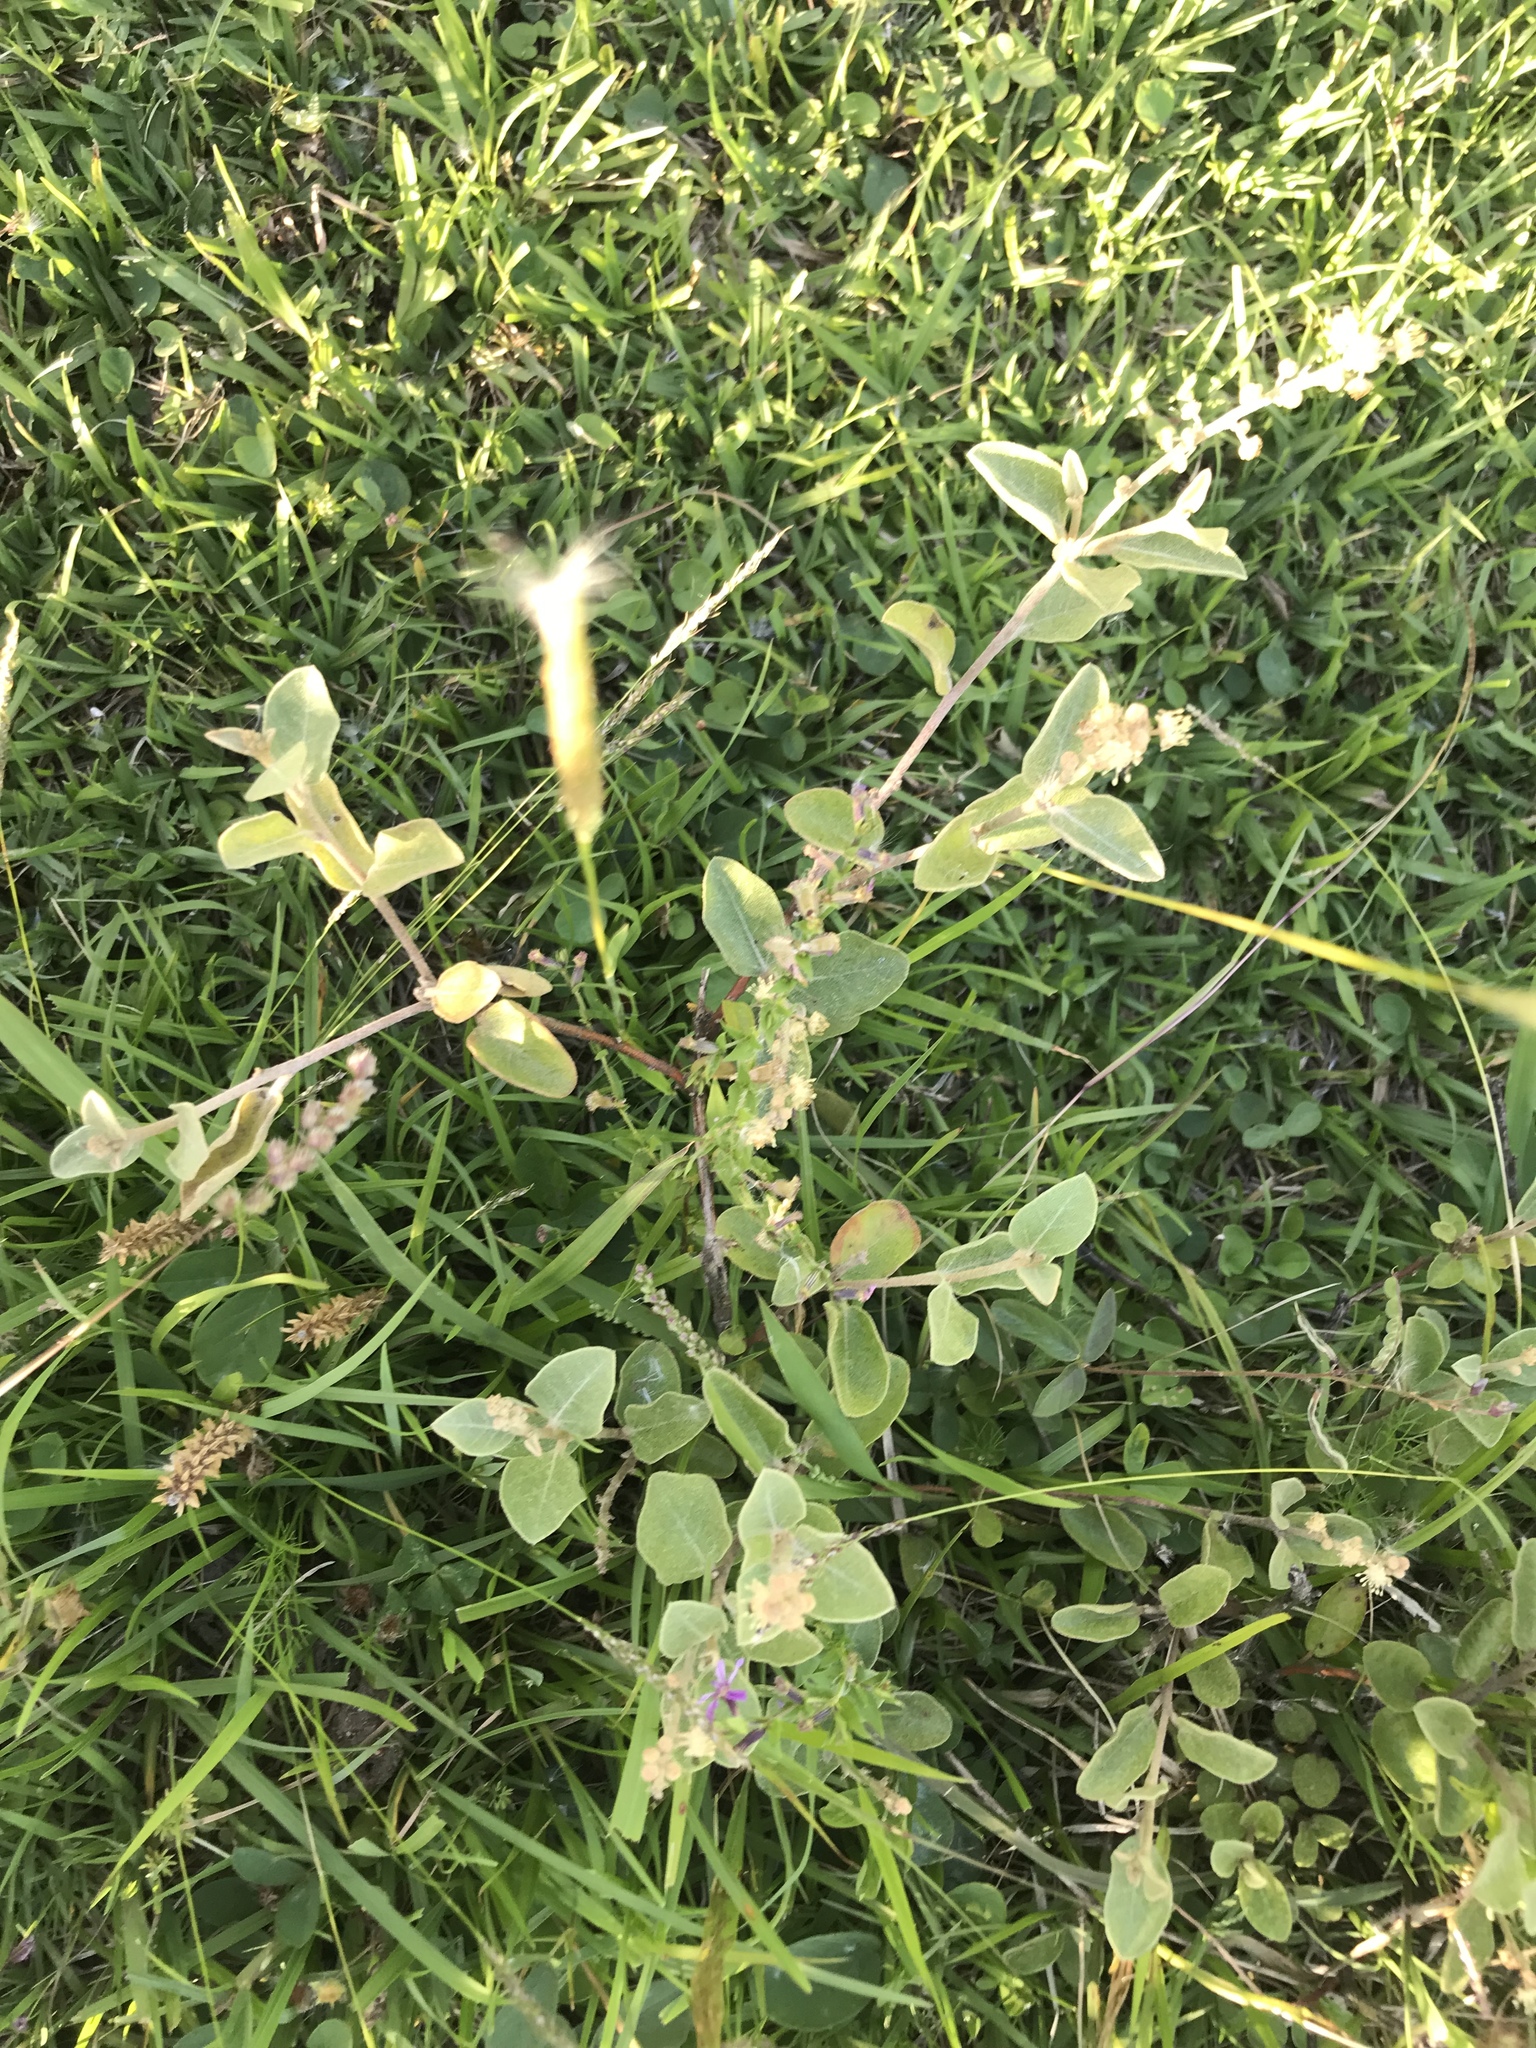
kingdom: Plantae
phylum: Tracheophyta
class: Magnoliopsida
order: Malpighiales
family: Euphorbiaceae
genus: Croton
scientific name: Croton lanatus
